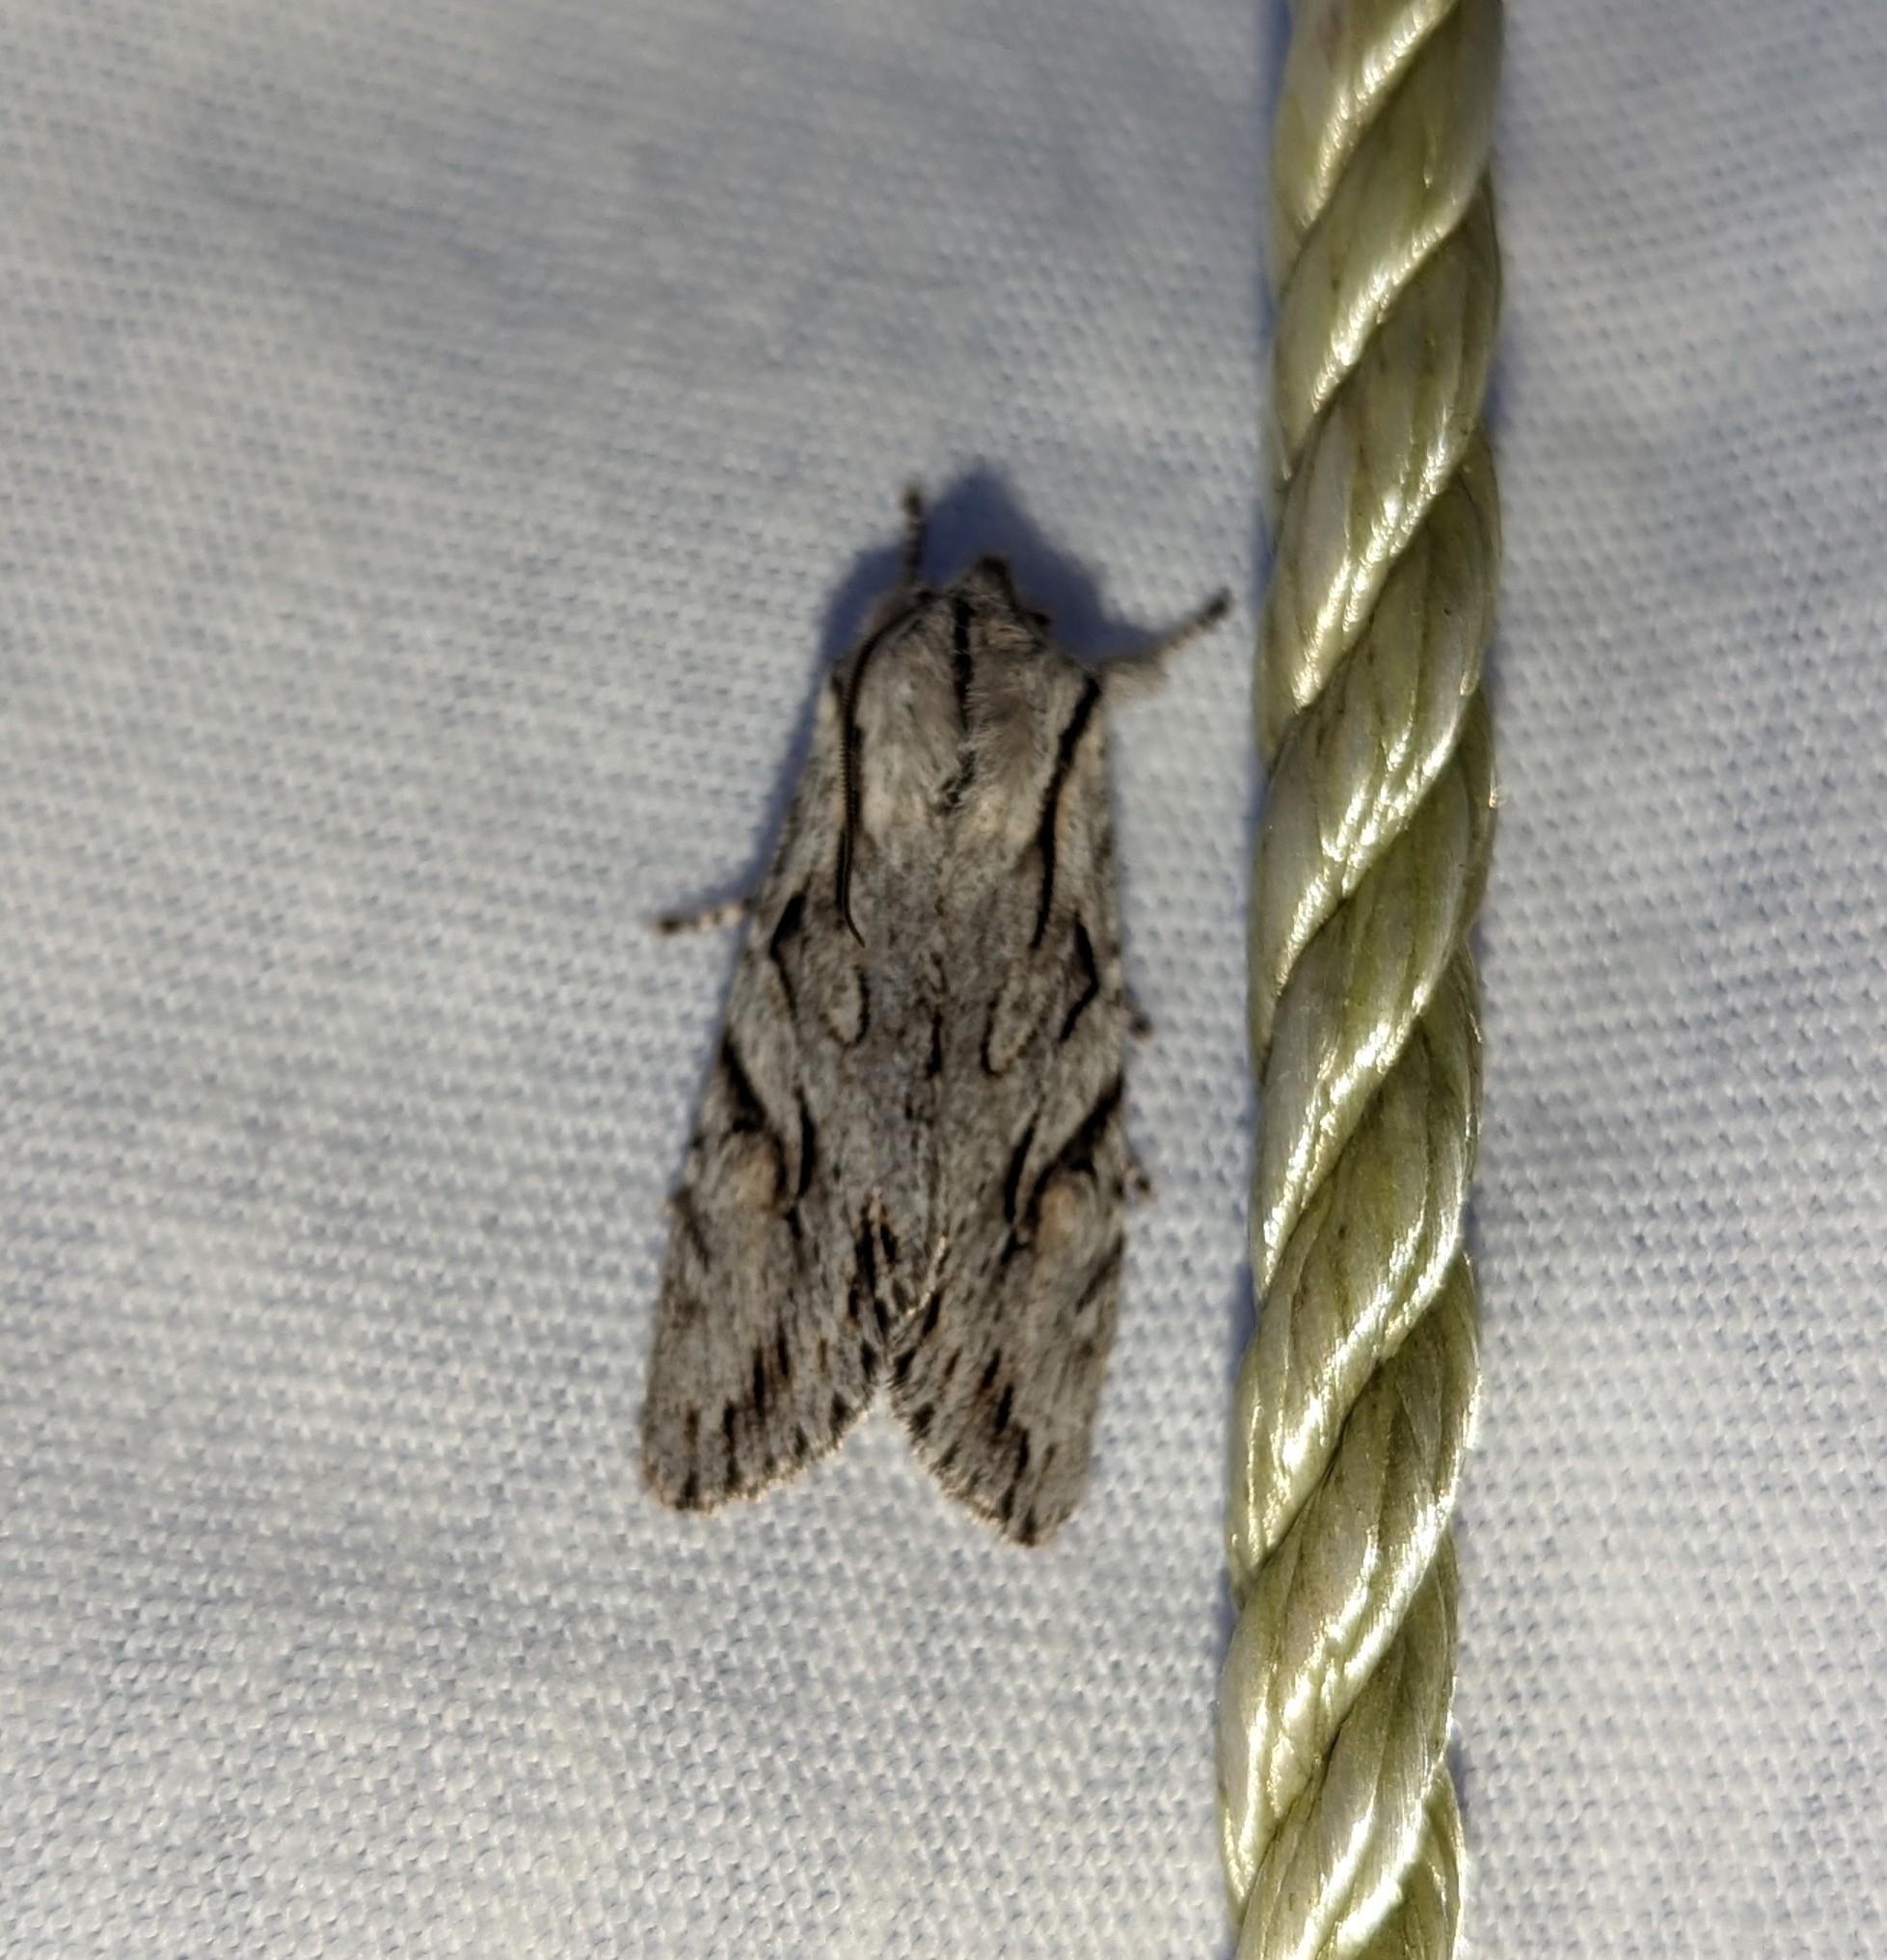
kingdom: Animalia
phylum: Arthropoda
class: Insecta
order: Lepidoptera
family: Noctuidae
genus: Egira
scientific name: Egira crucialis
